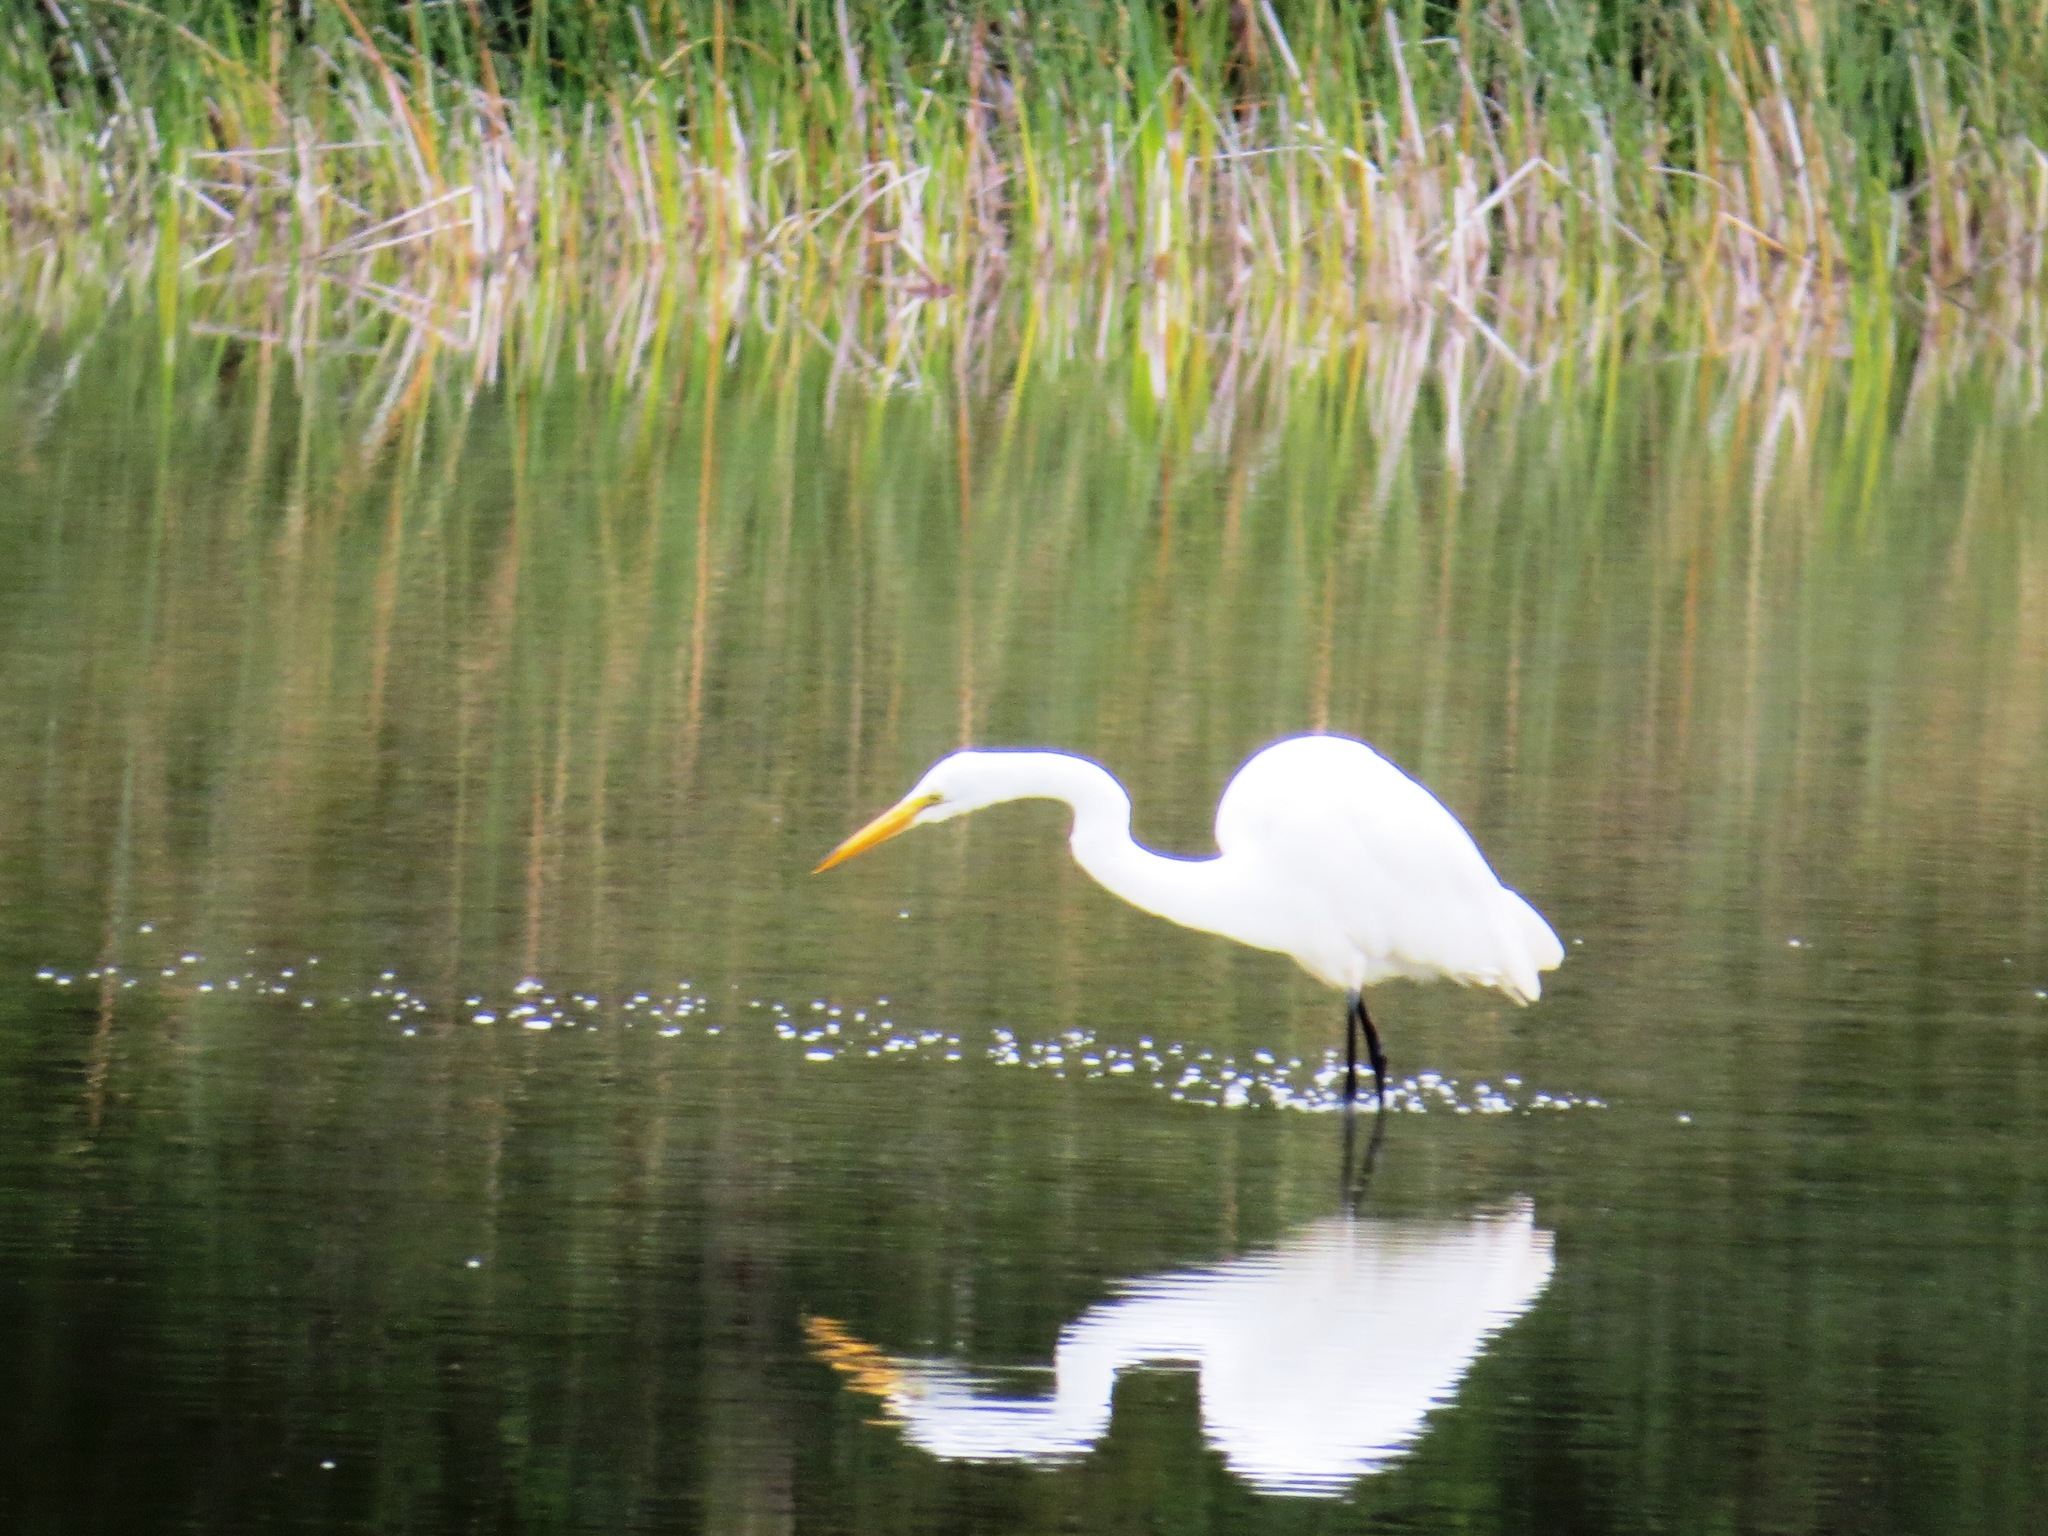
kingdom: Animalia
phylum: Chordata
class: Aves
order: Pelecaniformes
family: Ardeidae
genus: Ardea
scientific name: Ardea alba
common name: Great egret
